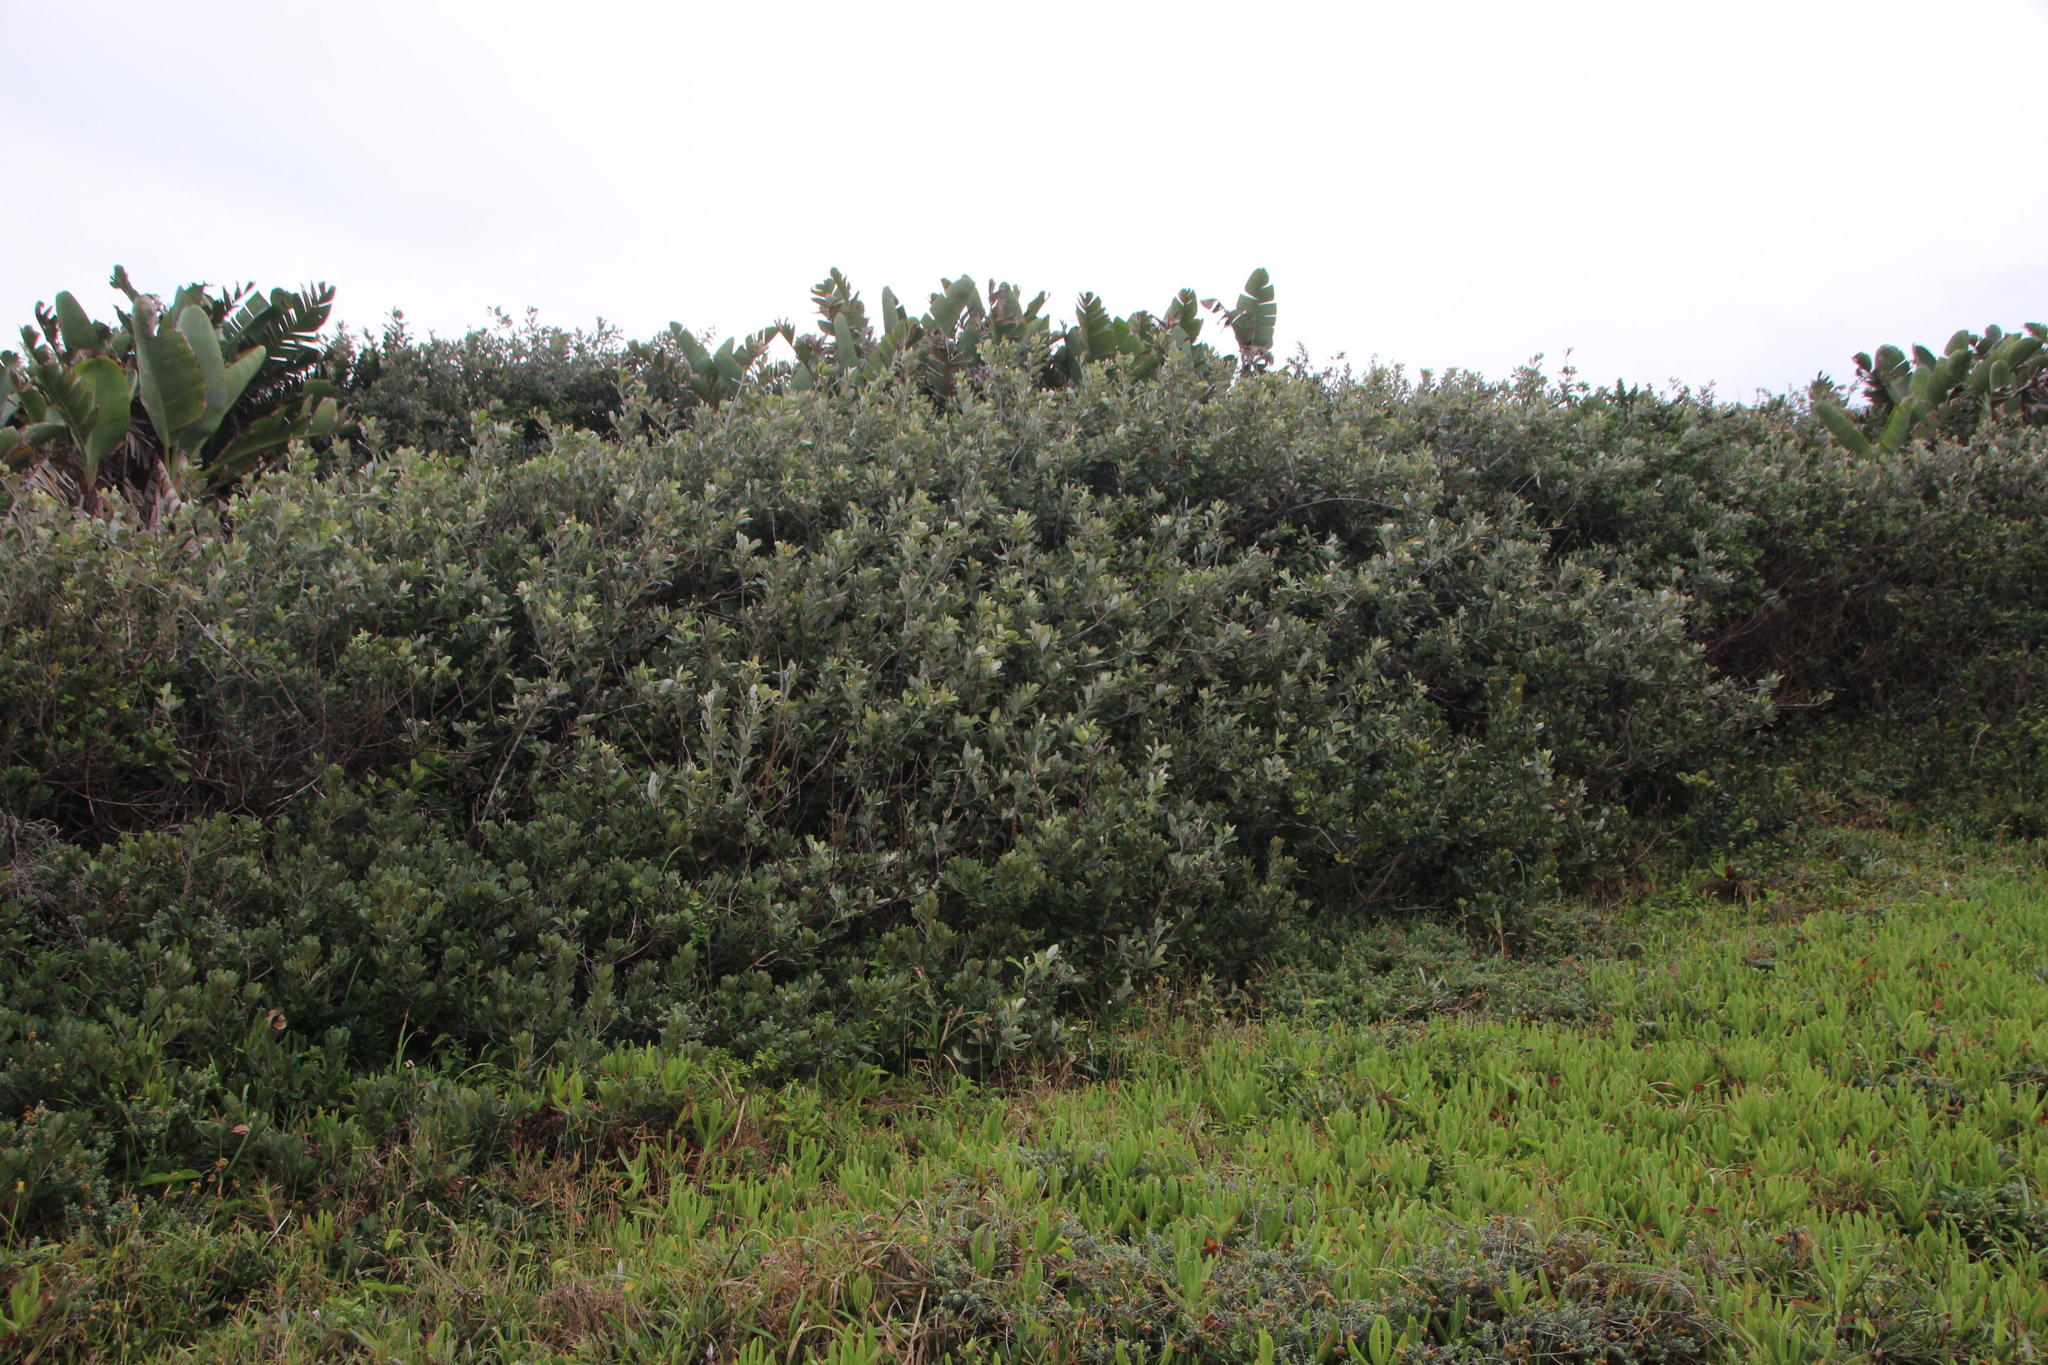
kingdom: Plantae
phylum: Tracheophyta
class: Magnoliopsida
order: Asterales
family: Asteraceae
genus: Brachylaena
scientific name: Brachylaena discolor
